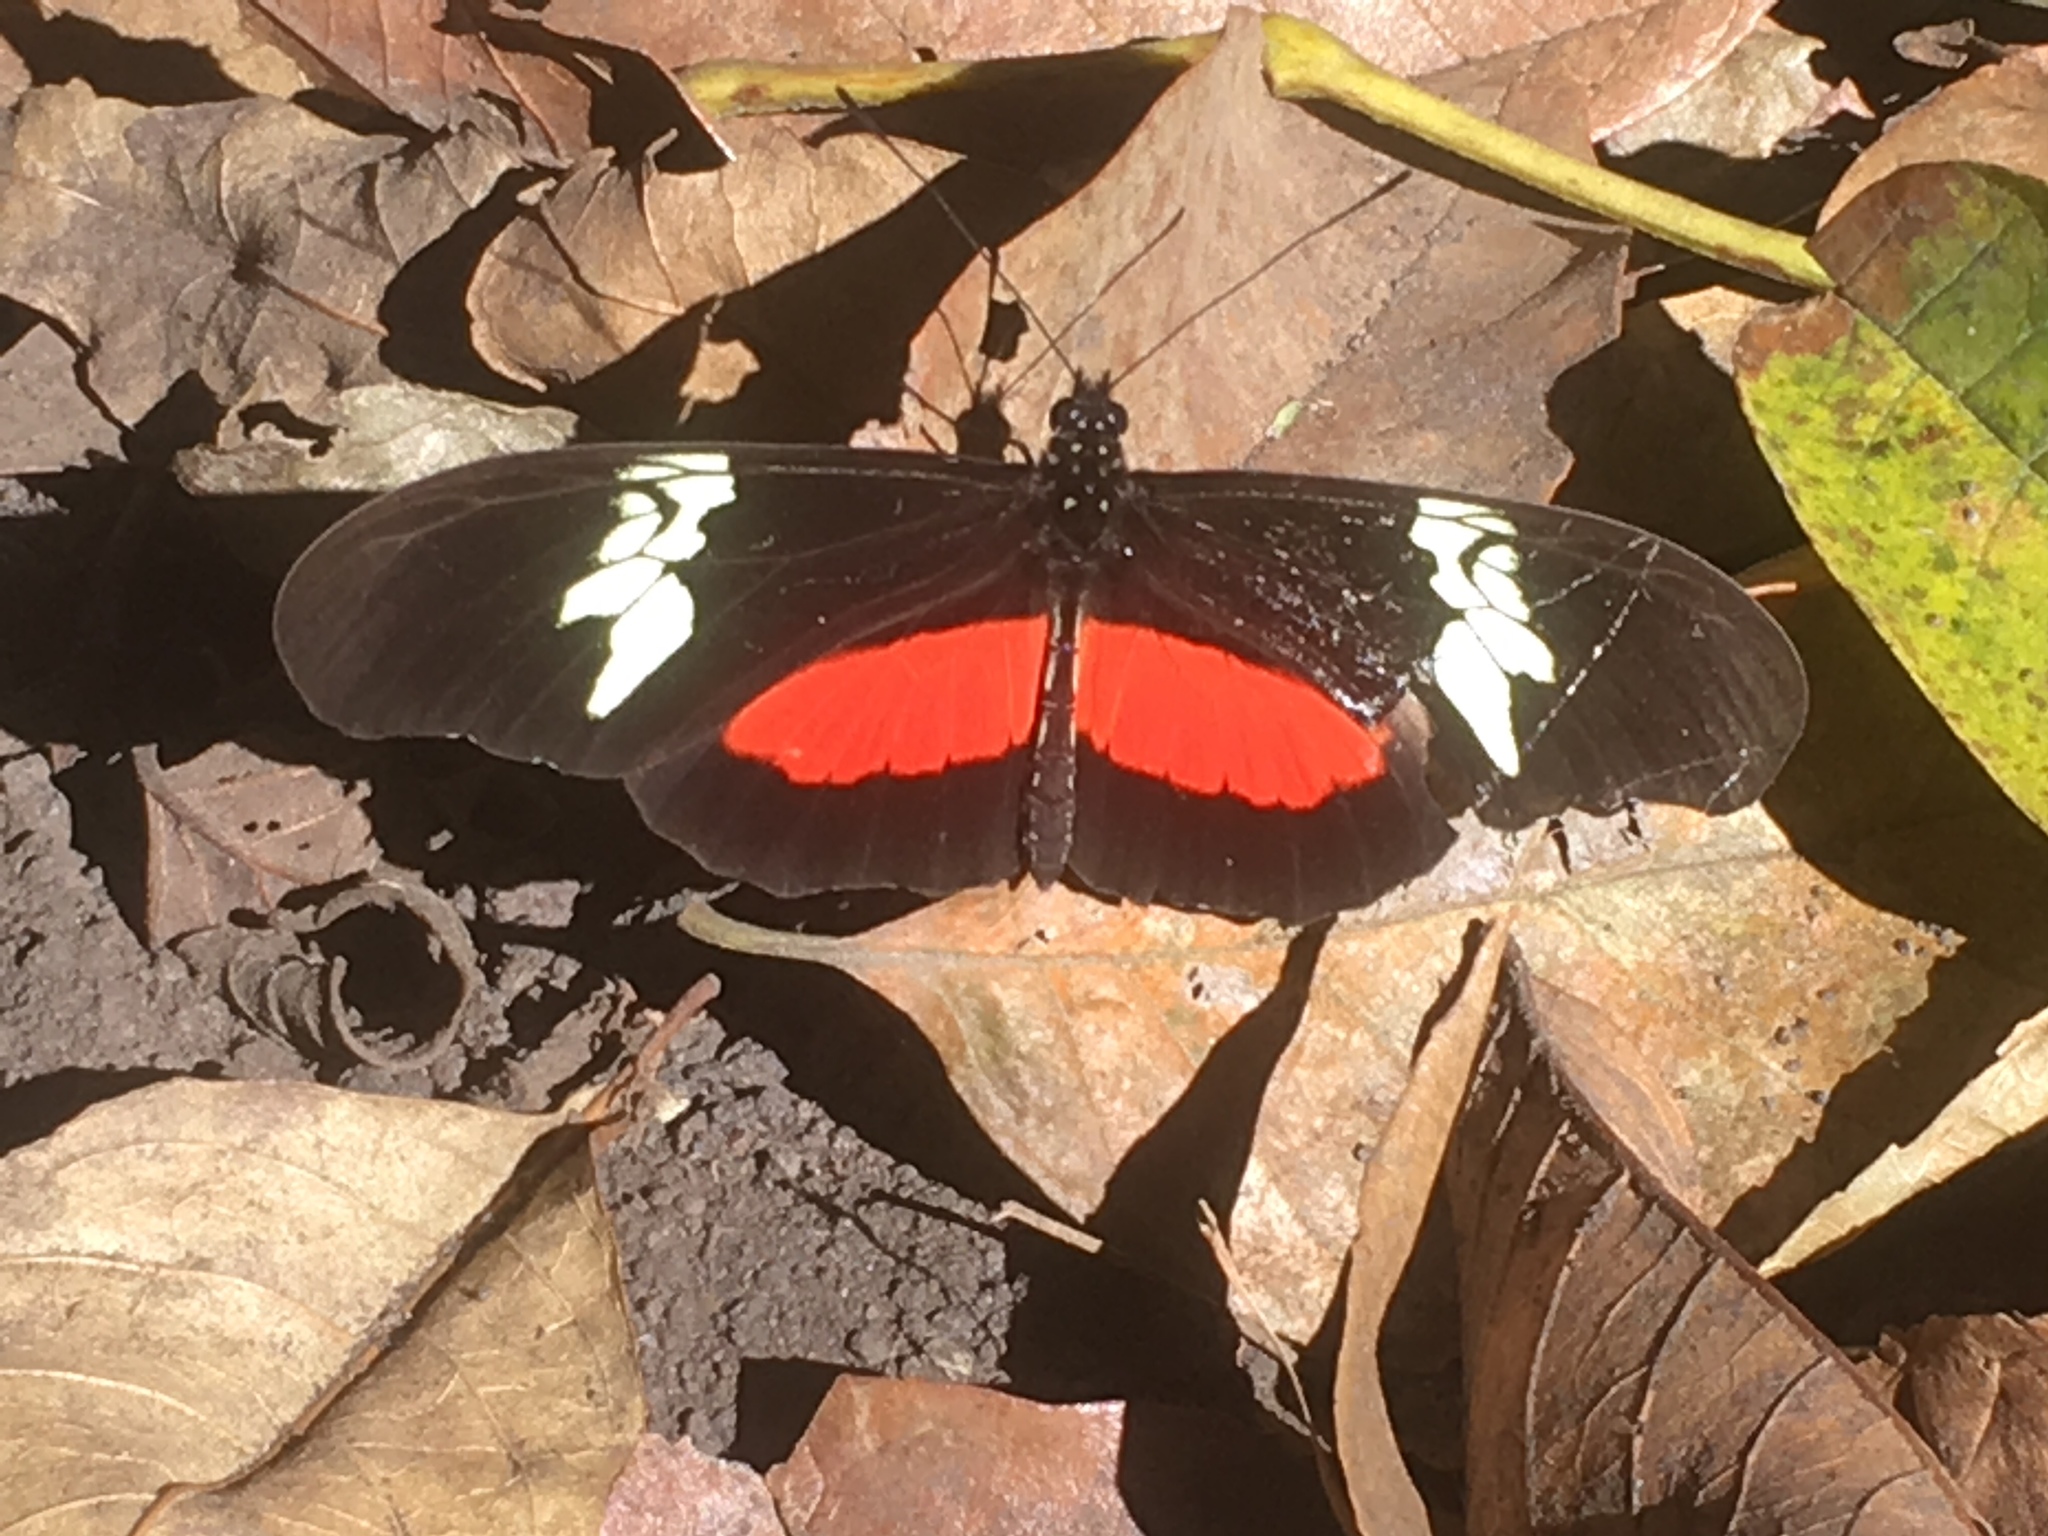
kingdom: Animalia
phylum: Arthropoda
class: Insecta
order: Lepidoptera
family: Nymphalidae
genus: Heliconius
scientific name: Heliconius hortense
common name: Mexican longwing
